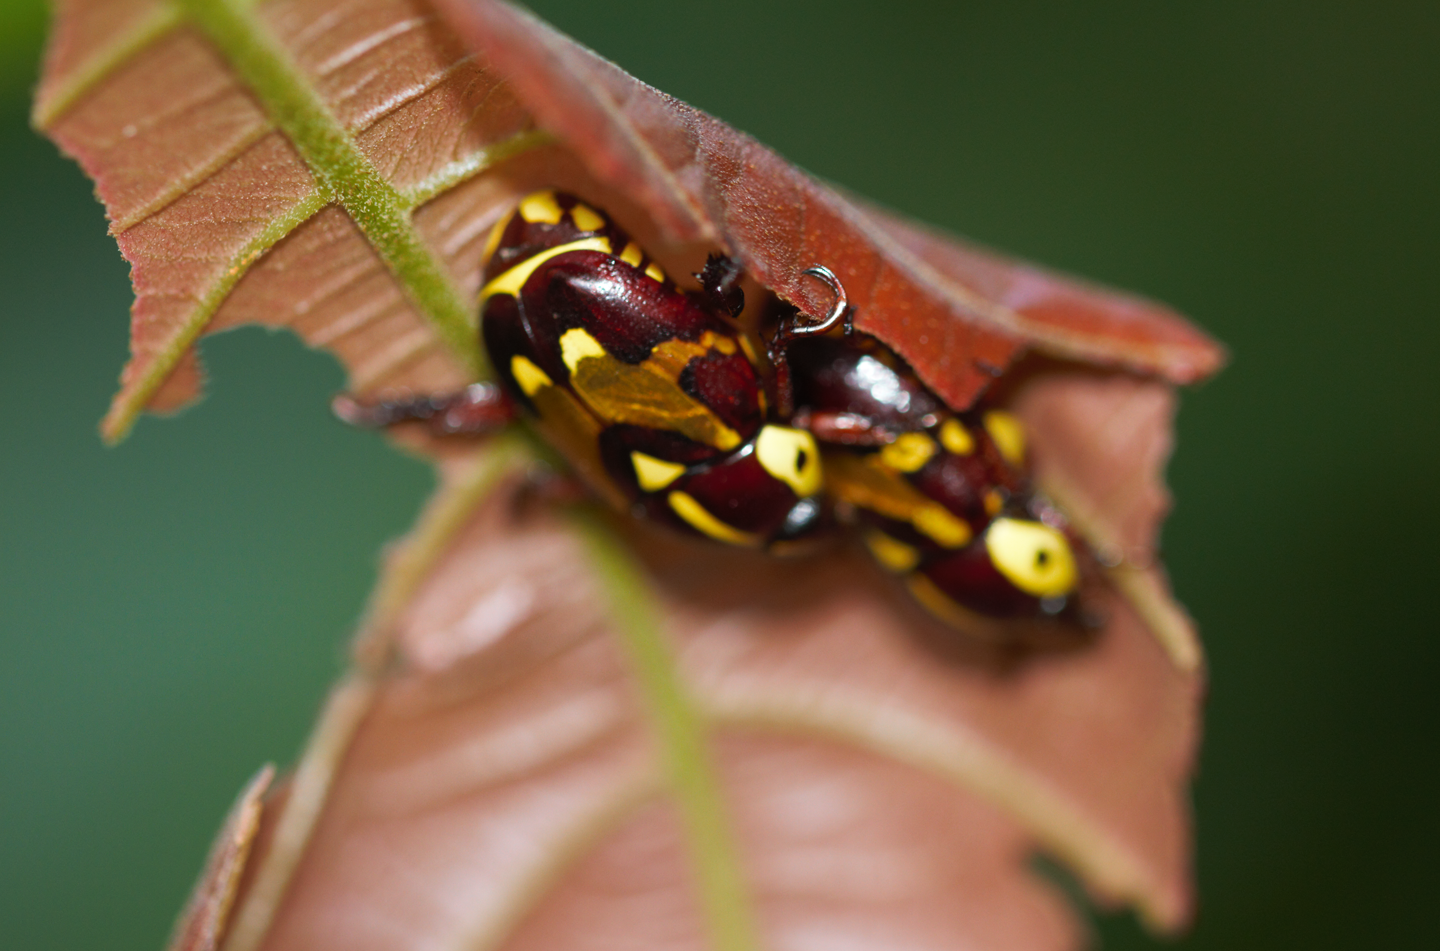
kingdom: Animalia
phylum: Arthropoda
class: Insecta
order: Coleoptera
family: Scarabaeidae
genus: Rutela
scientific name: Rutela histrio
